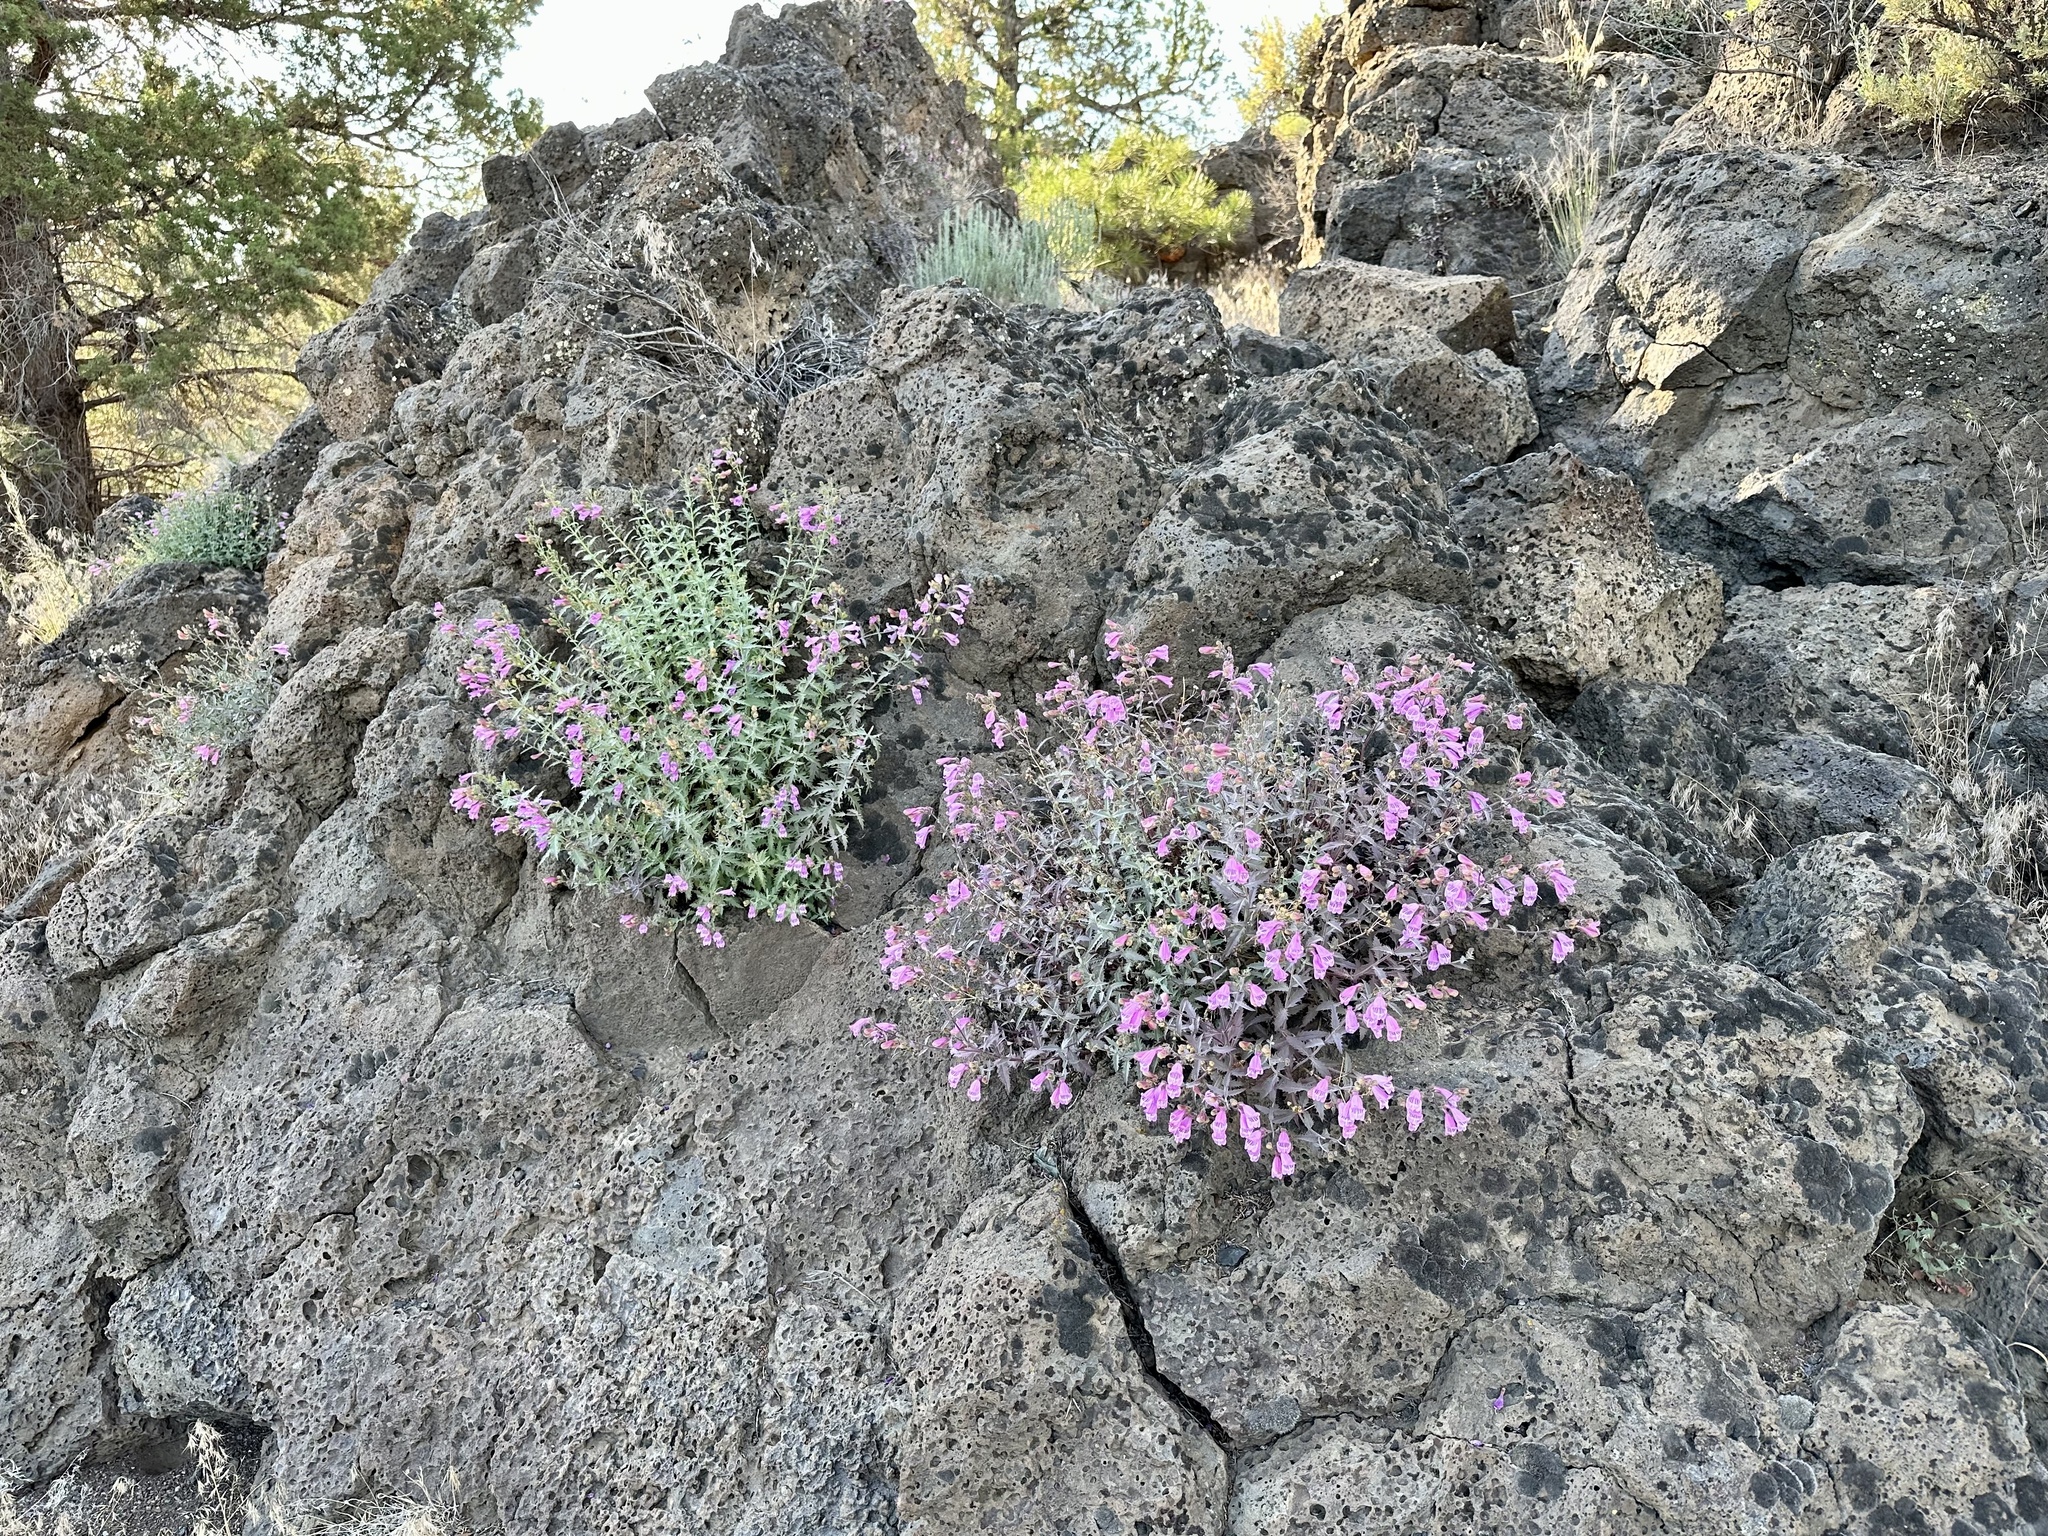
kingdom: Plantae
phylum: Tracheophyta
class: Magnoliopsida
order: Lamiales
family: Plantaginaceae
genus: Penstemon
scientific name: Penstemon richardsonii
